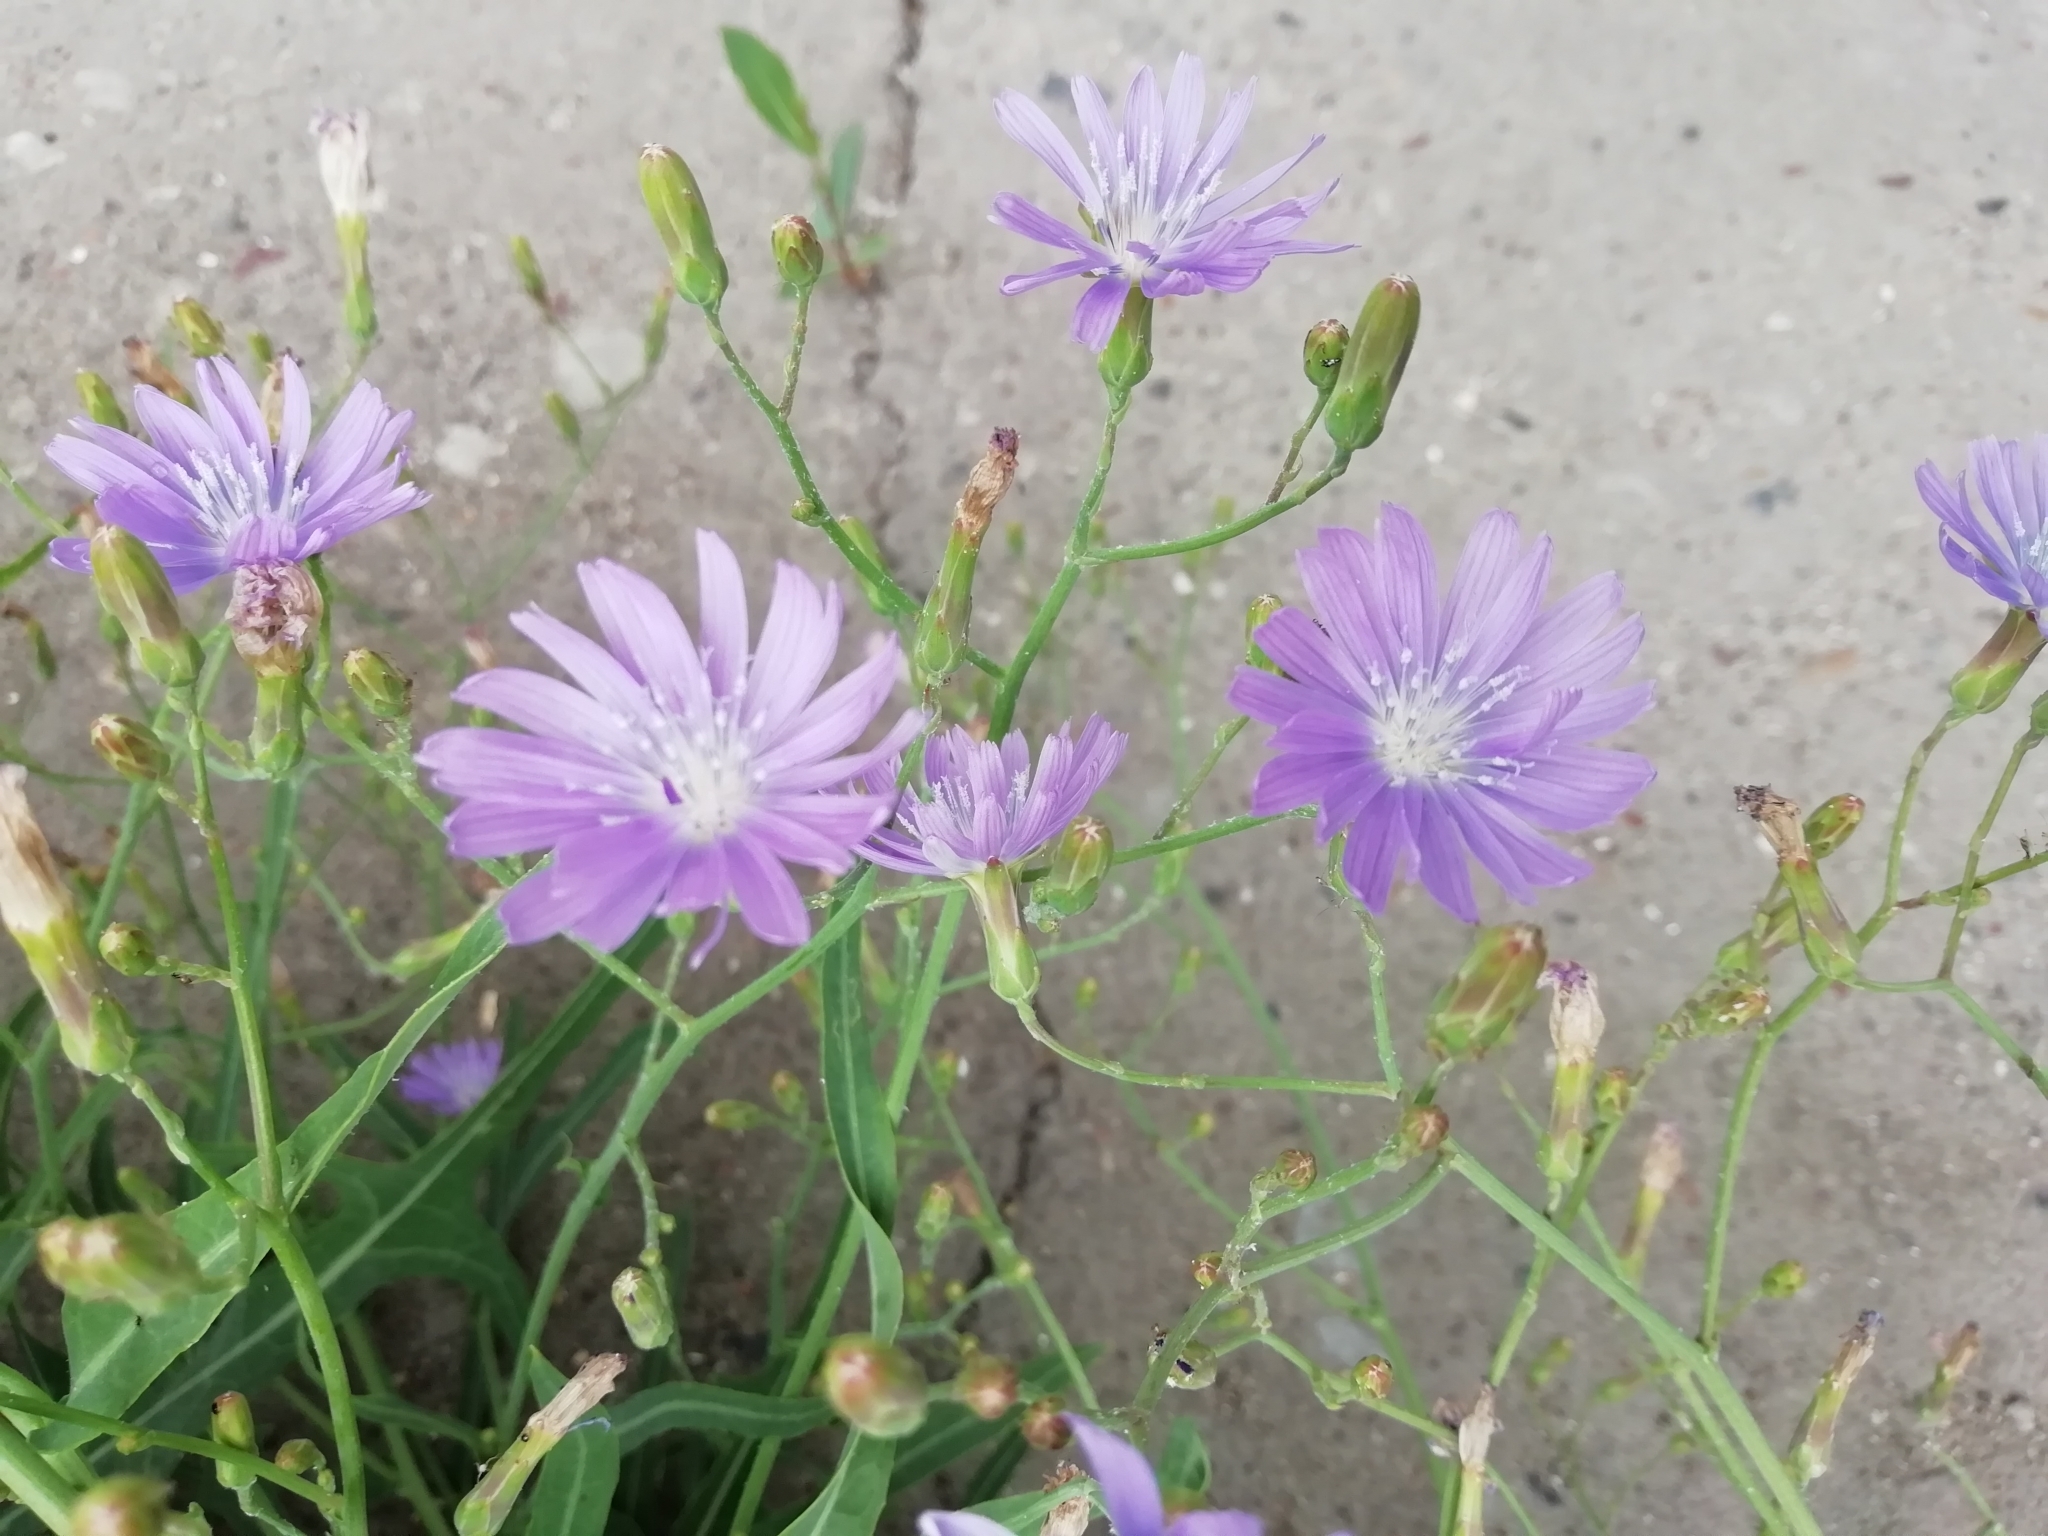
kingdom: Plantae
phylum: Tracheophyta
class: Magnoliopsida
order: Asterales
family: Asteraceae
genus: Lactuca
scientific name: Lactuca tatarica
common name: Blue lettuce
